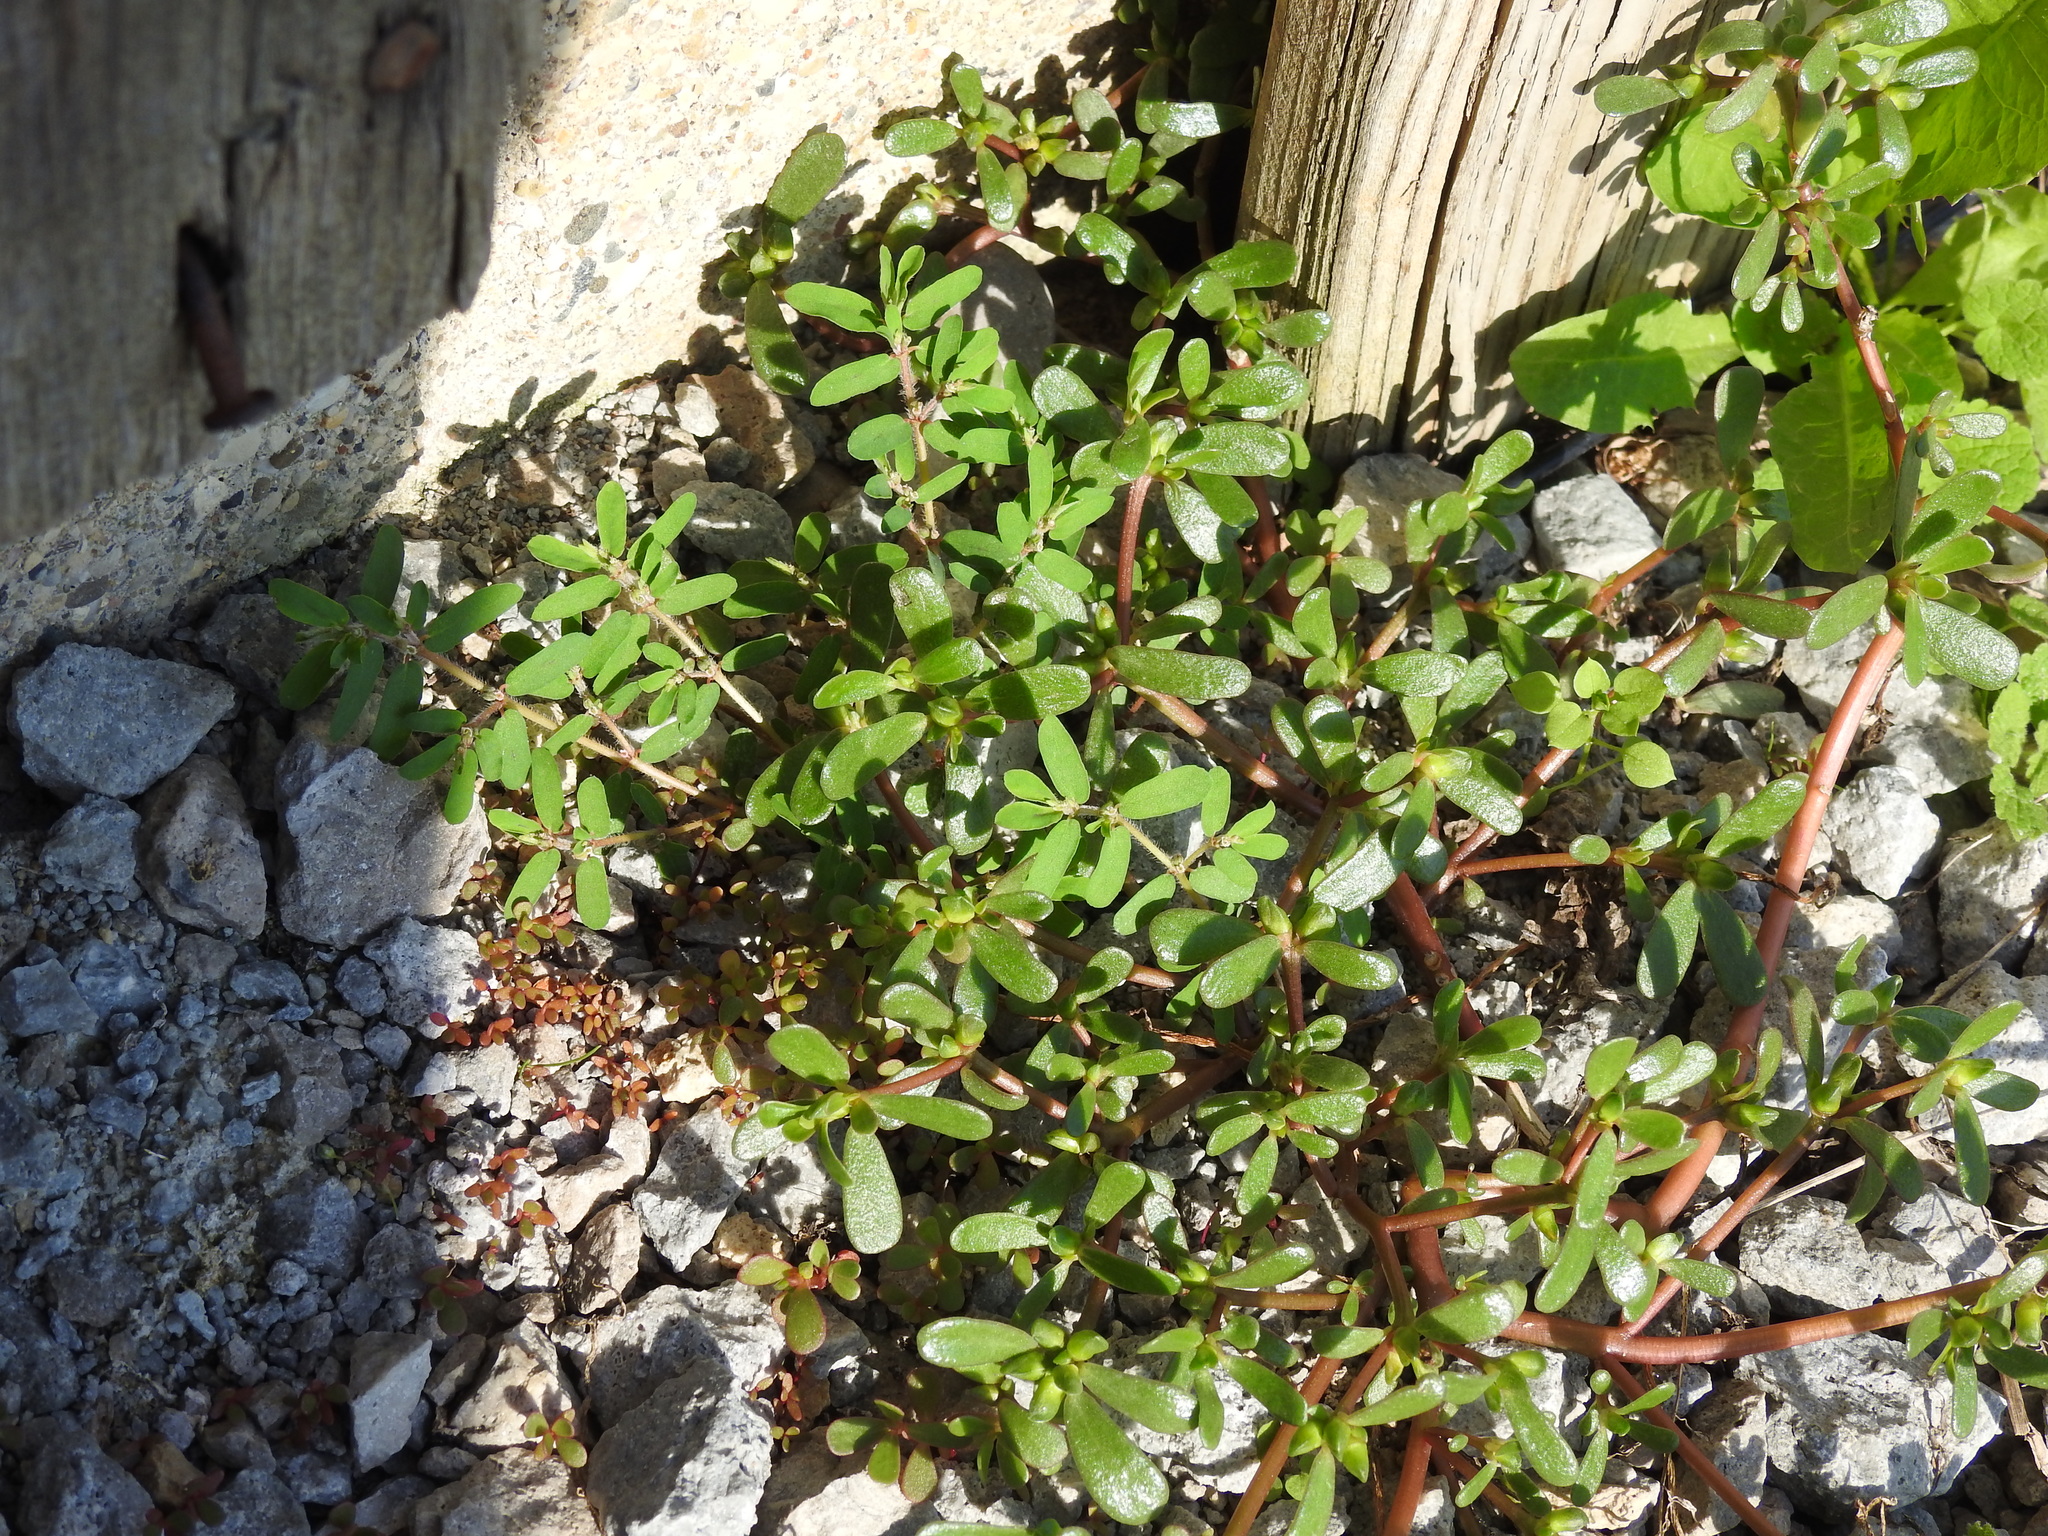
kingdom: Plantae
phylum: Tracheophyta
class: Magnoliopsida
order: Caryophyllales
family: Portulacaceae
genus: Portulaca
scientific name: Portulaca oleracea
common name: Common purslane
